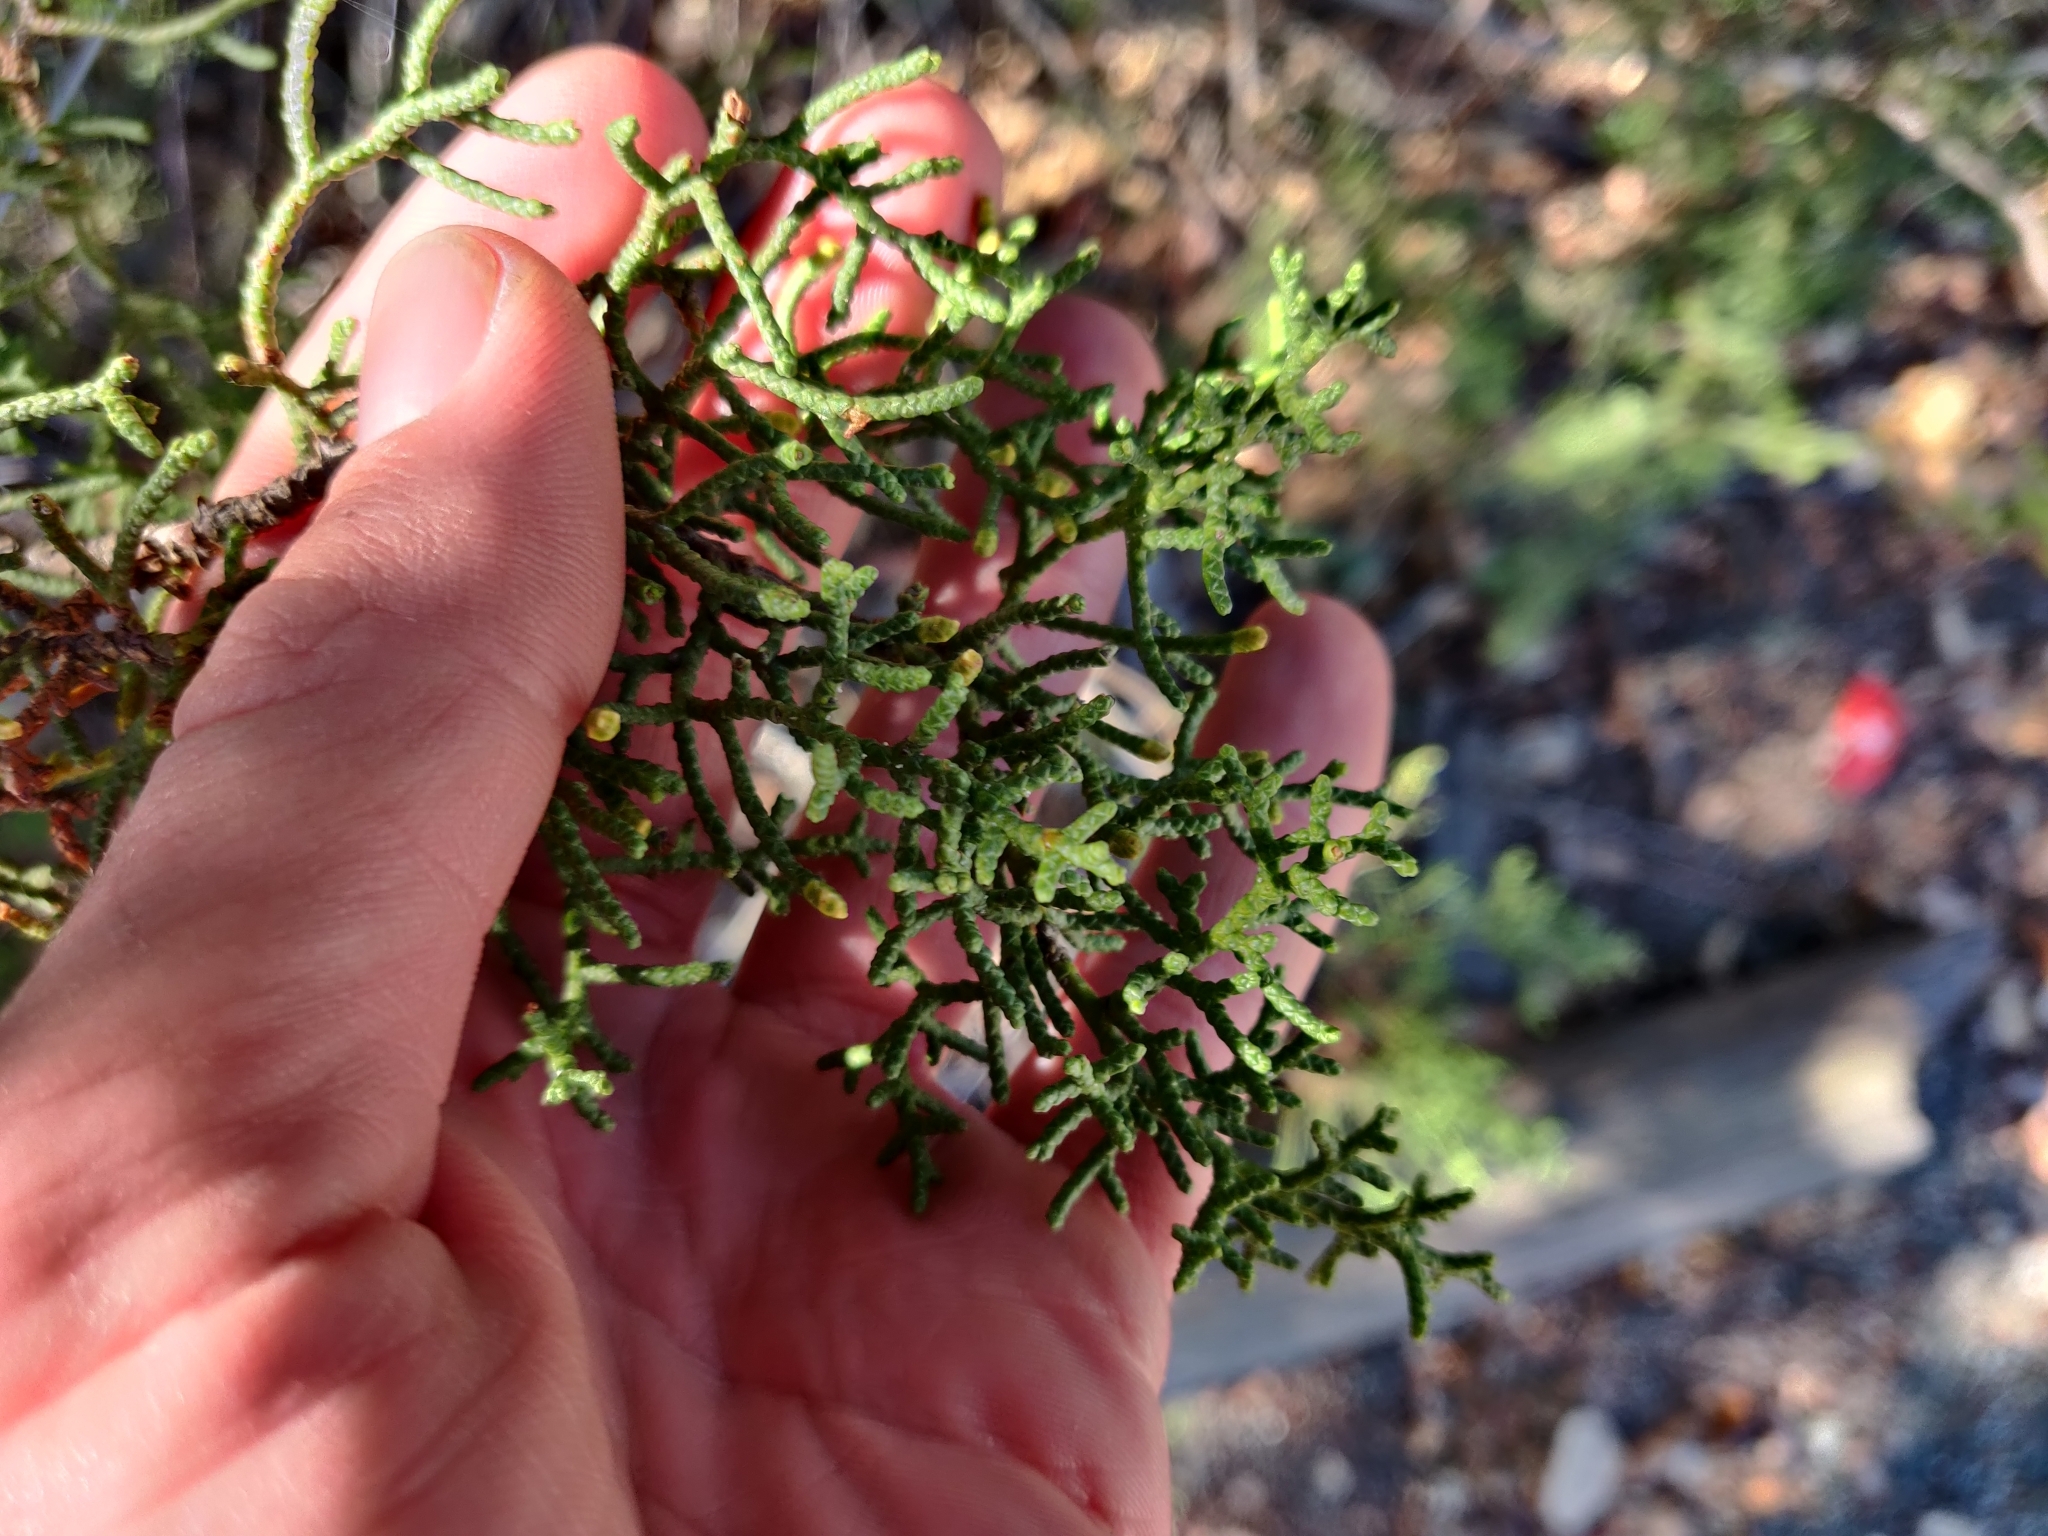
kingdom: Plantae
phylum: Tracheophyta
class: Pinopsida
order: Pinales
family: Cupressaceae
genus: Cupressus
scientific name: Cupressus goveniana
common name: Gowen cypress
